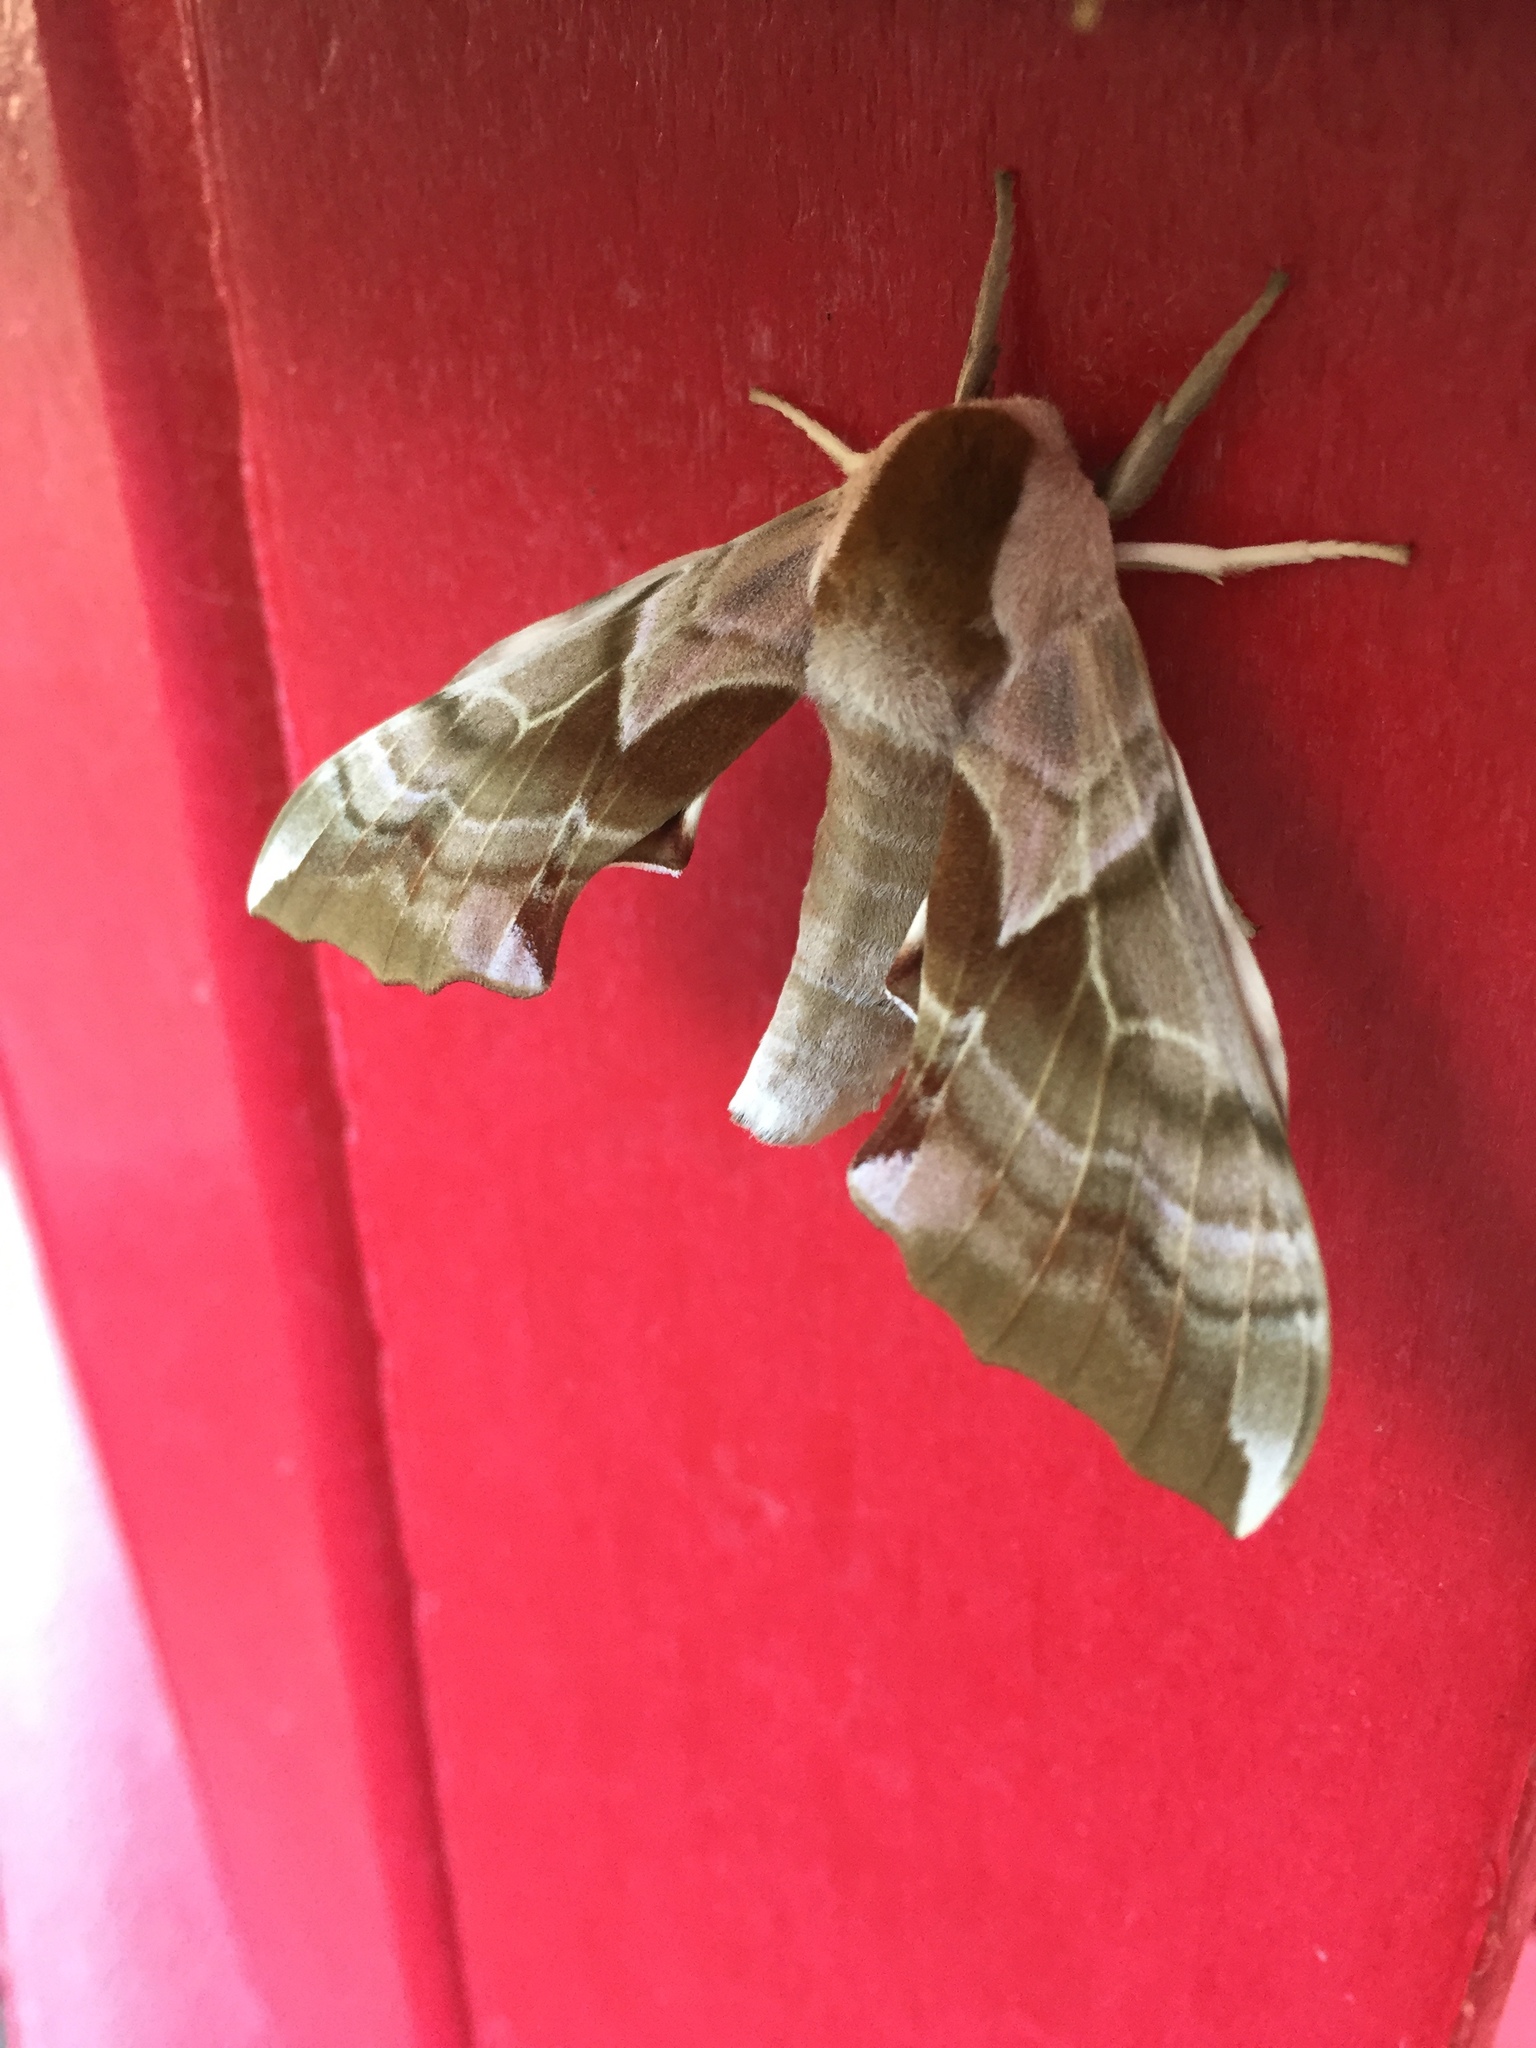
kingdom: Animalia
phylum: Arthropoda
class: Insecta
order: Lepidoptera
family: Sphingidae
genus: Smerinthus
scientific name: Smerinthus cerisyi
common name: Cerisy's sphinx moth
